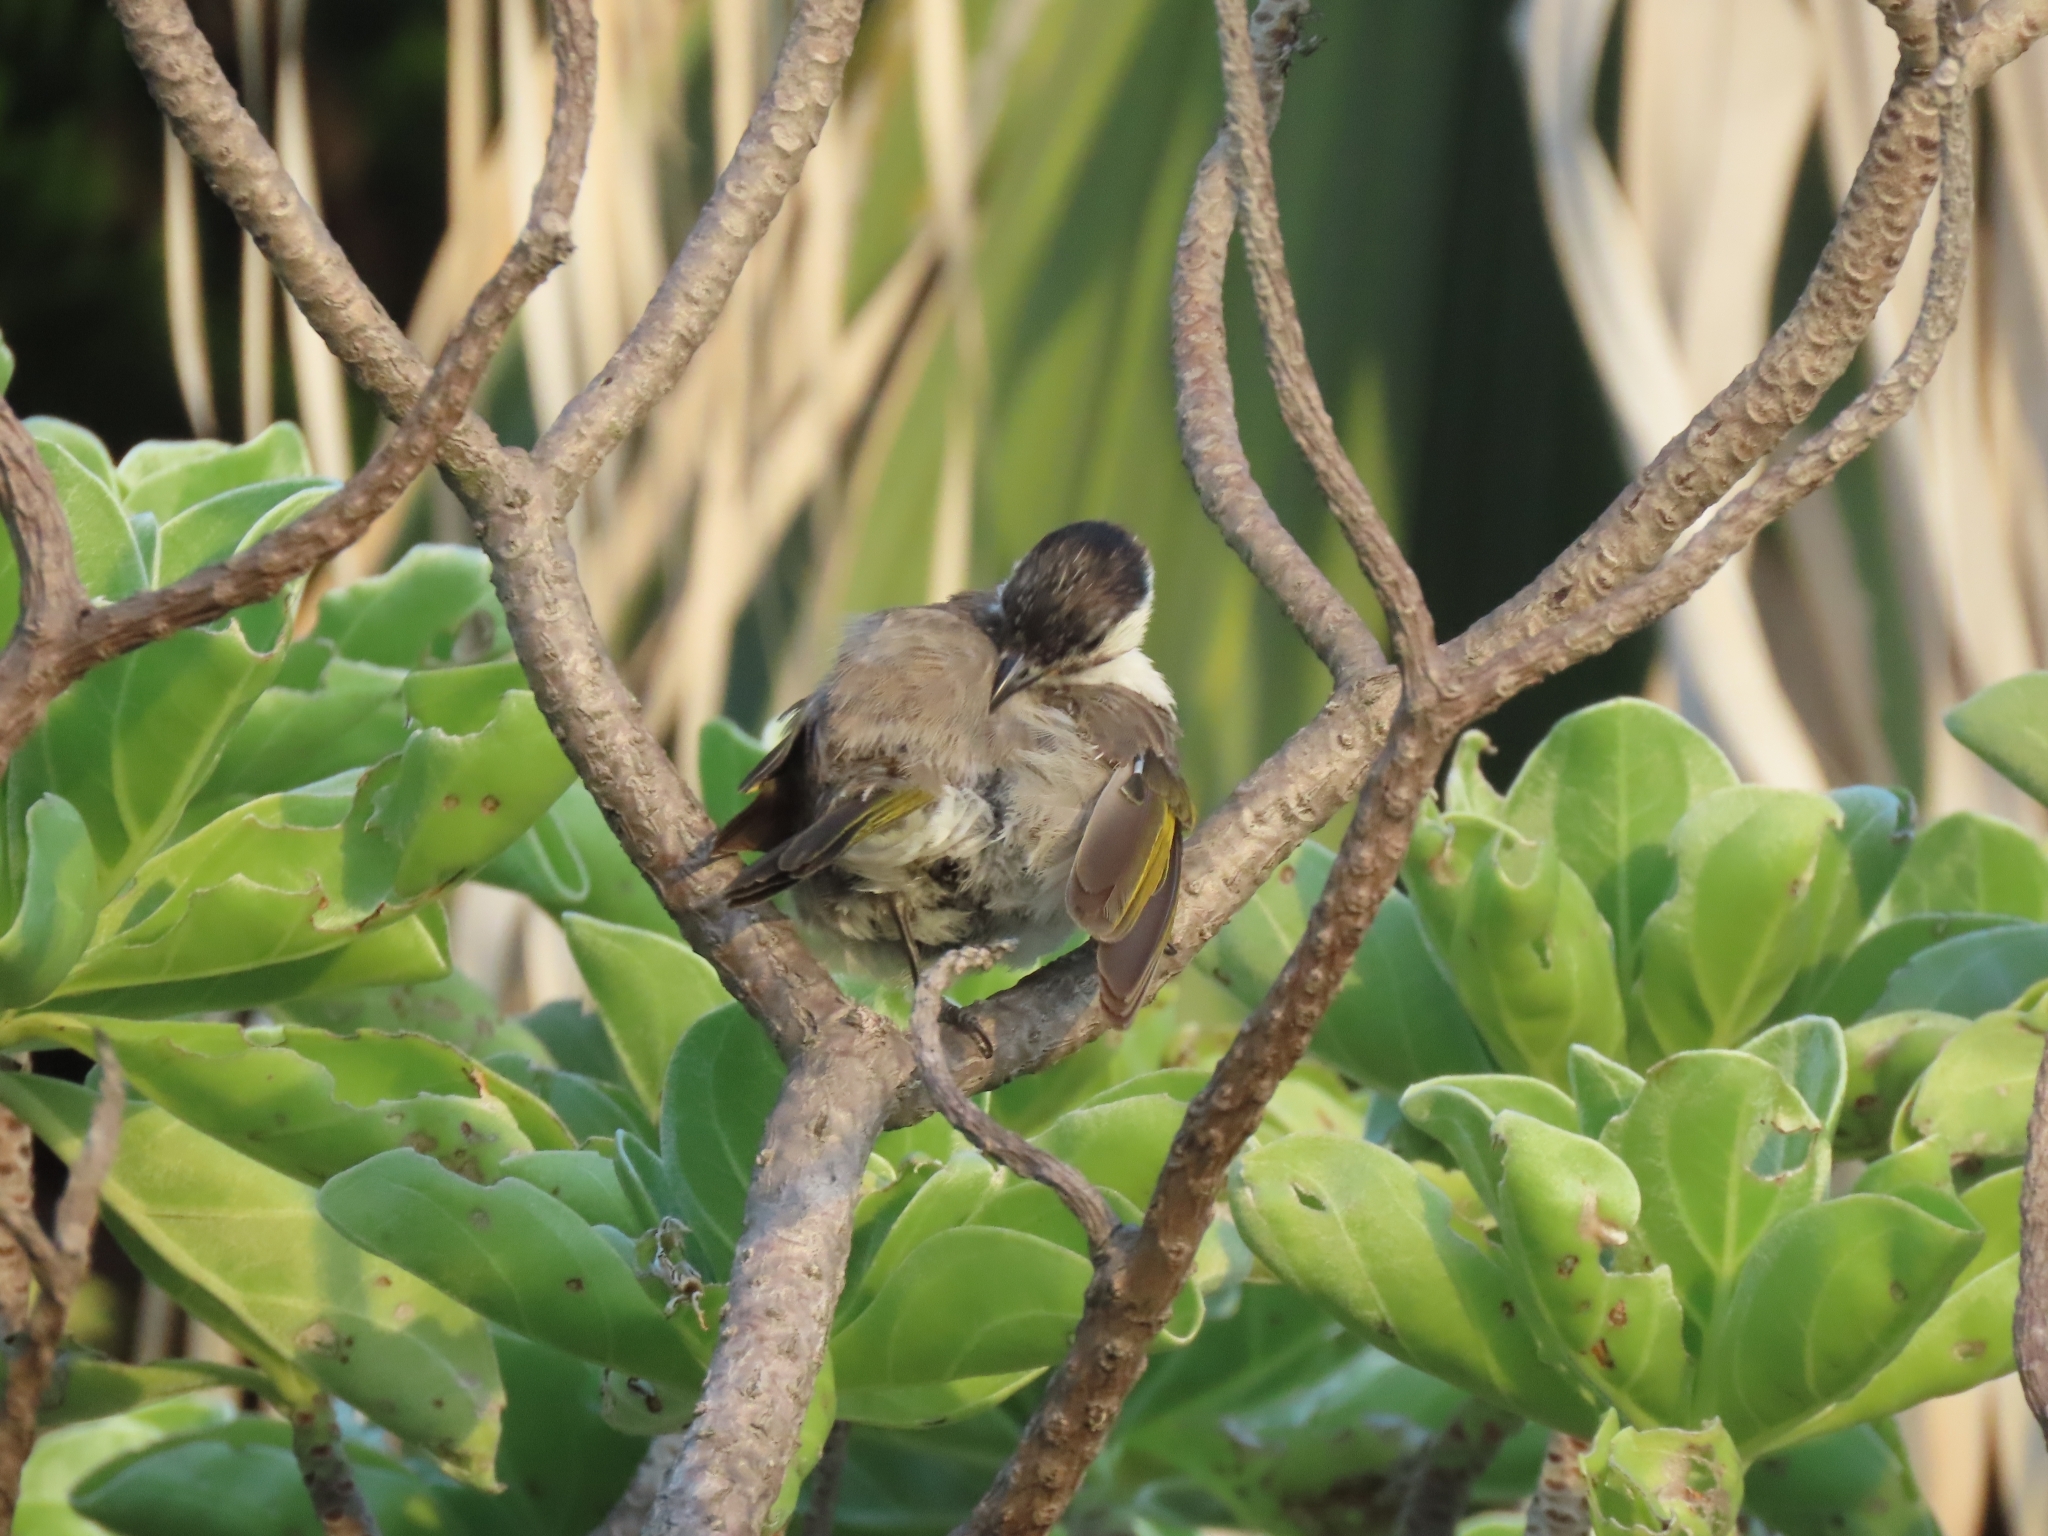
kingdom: Animalia
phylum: Chordata
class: Aves
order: Passeriformes
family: Pycnonotidae
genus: Pycnonotus
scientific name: Pycnonotus taivanus
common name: Styan's bulbul
